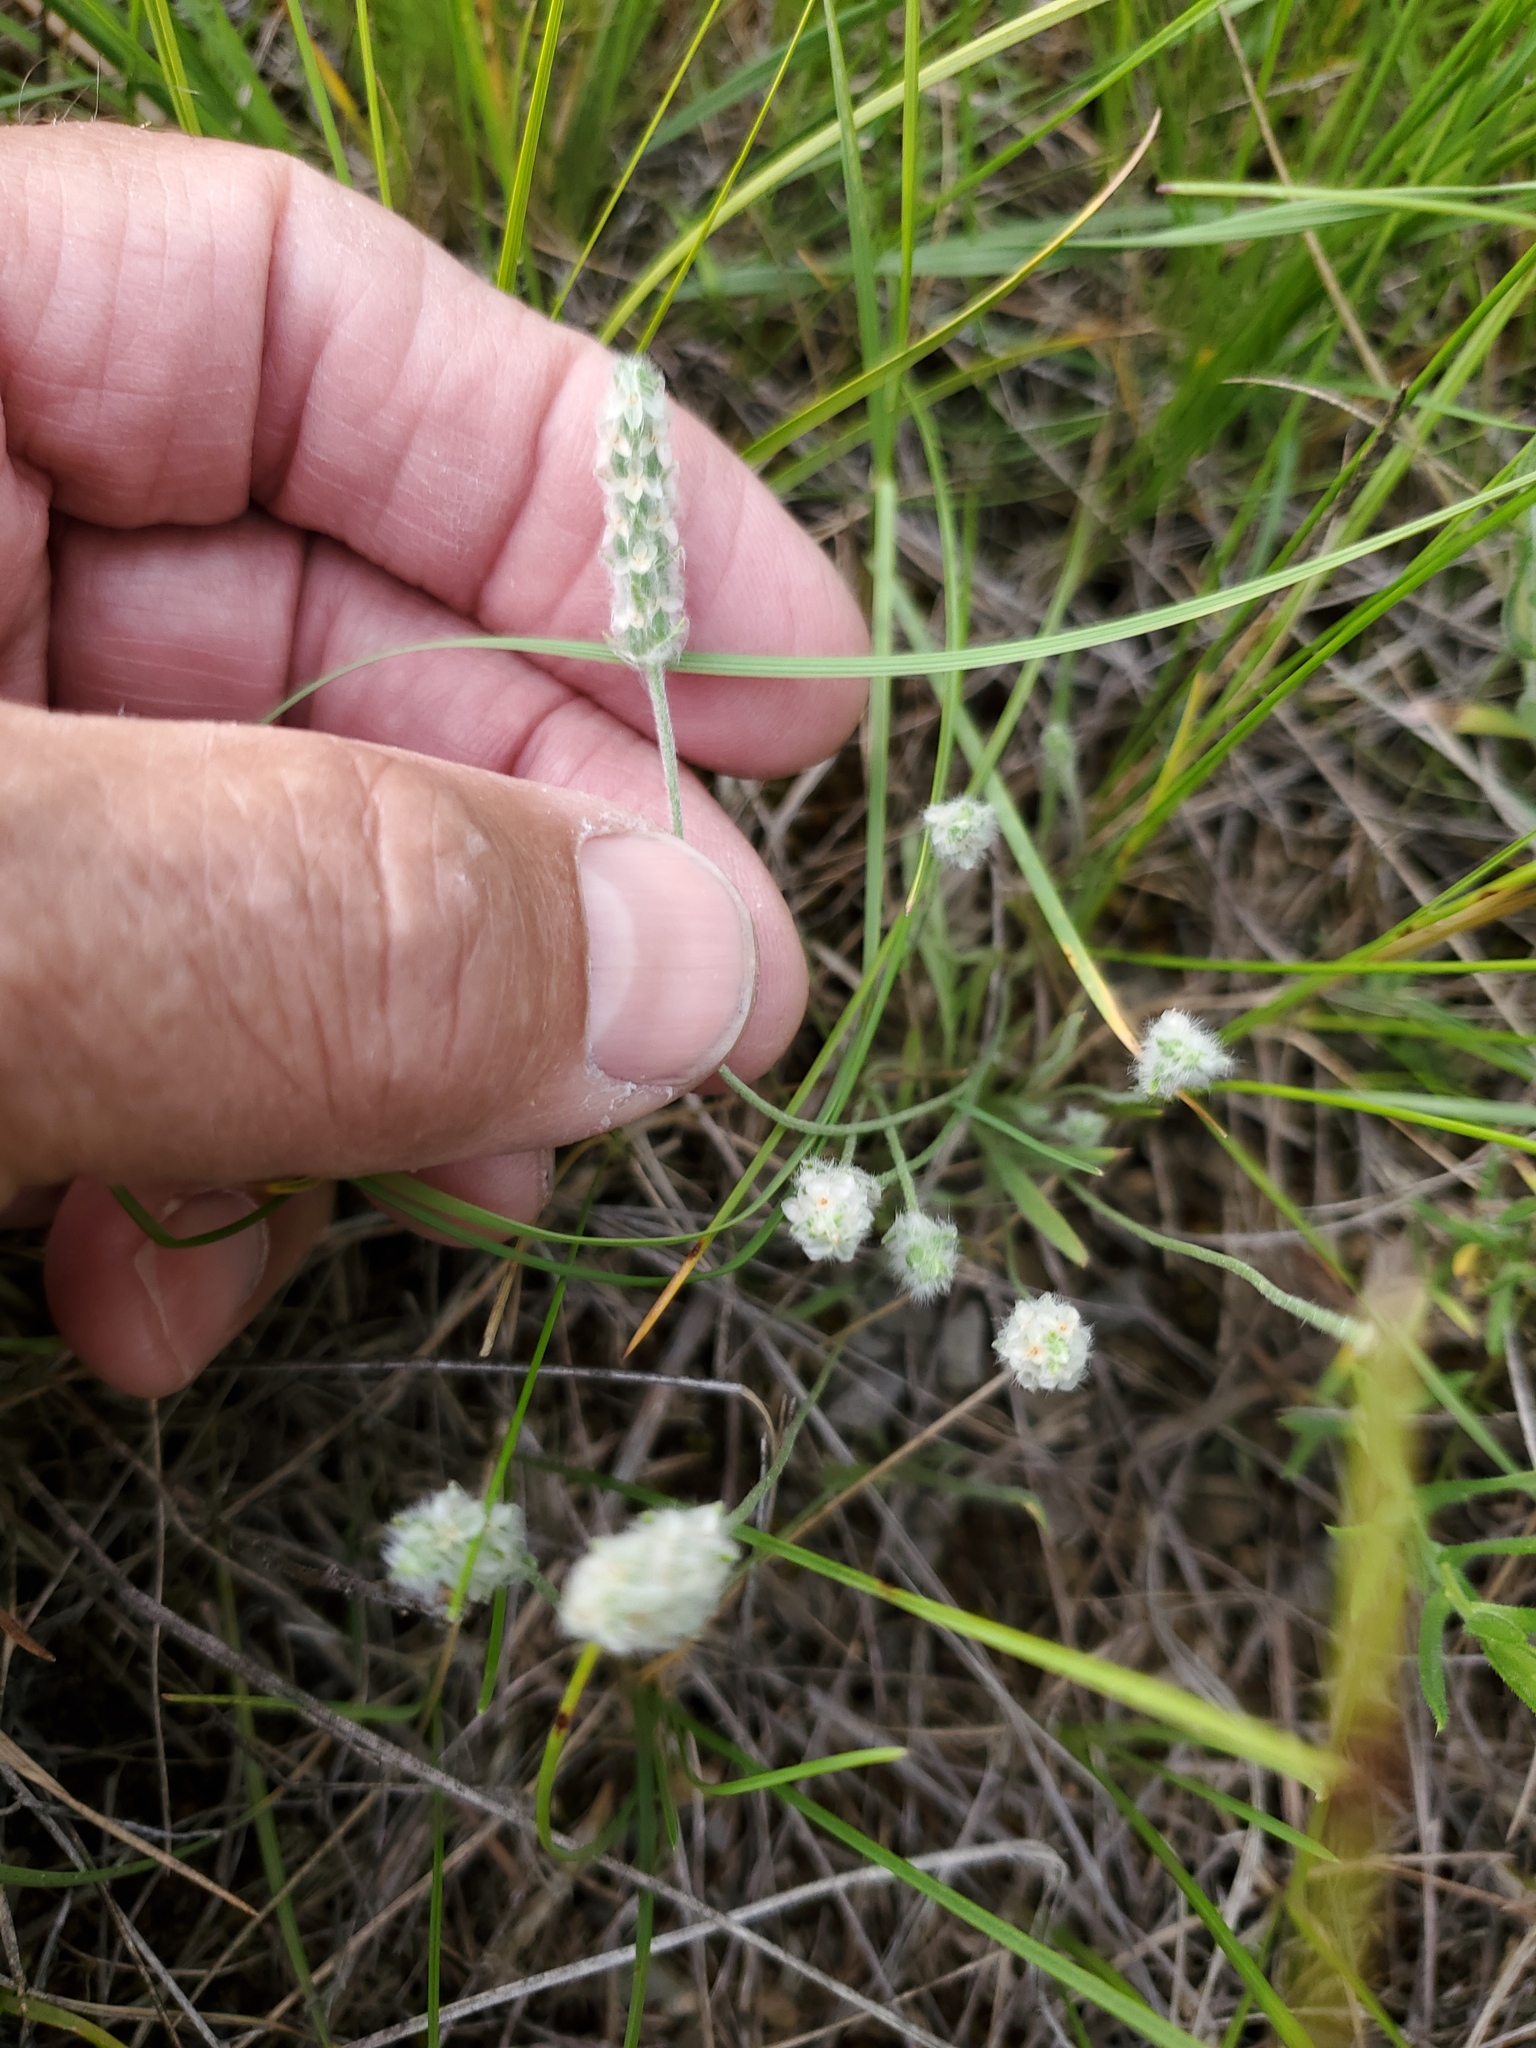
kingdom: Plantae
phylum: Tracheophyta
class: Magnoliopsida
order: Lamiales
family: Plantaginaceae
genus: Plantago
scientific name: Plantago patagonica
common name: Patagonia indian-wheat
